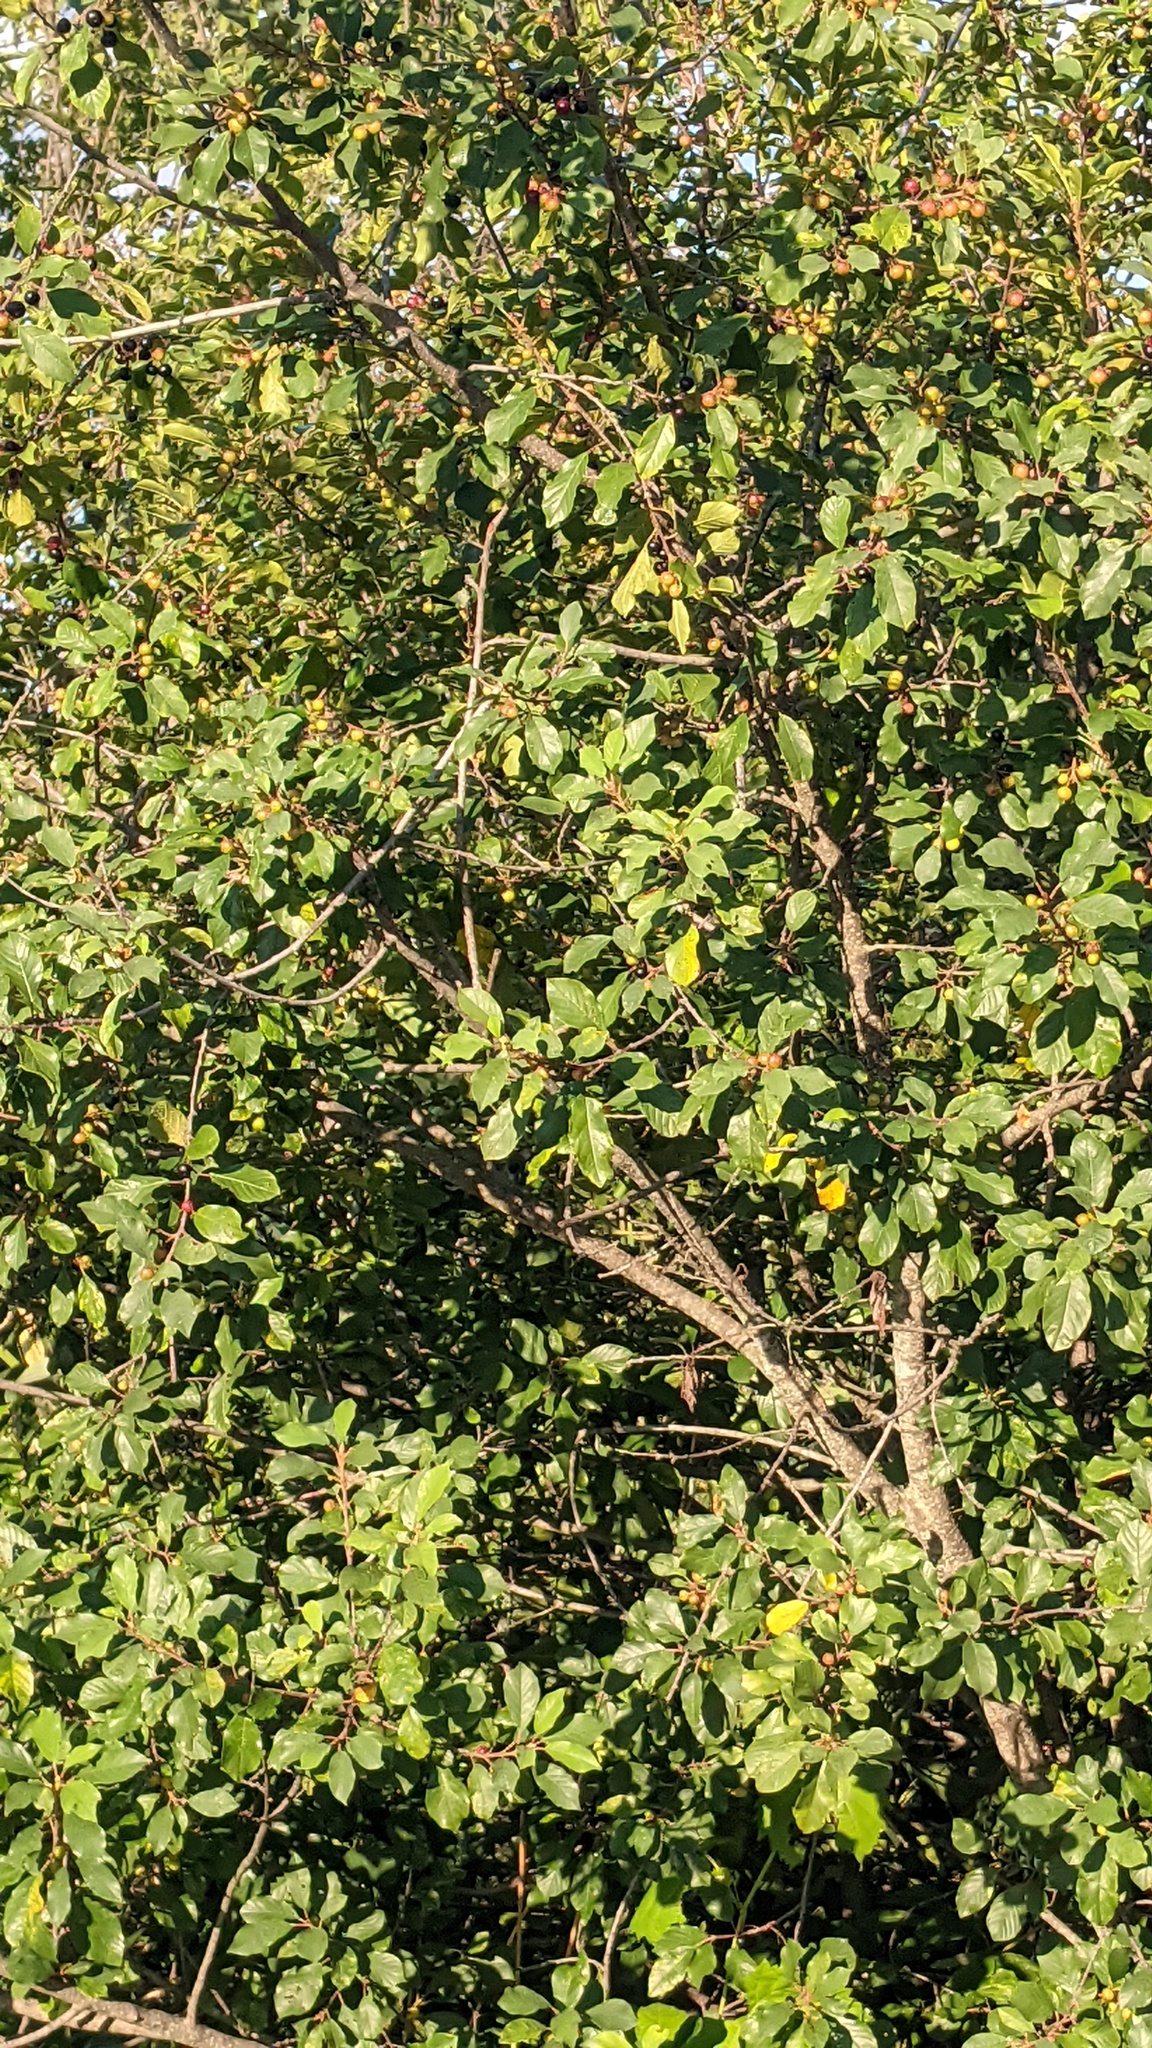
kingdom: Plantae
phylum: Tracheophyta
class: Magnoliopsida
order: Rosales
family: Rhamnaceae
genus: Frangula
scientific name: Frangula alnus
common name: Alder buckthorn
